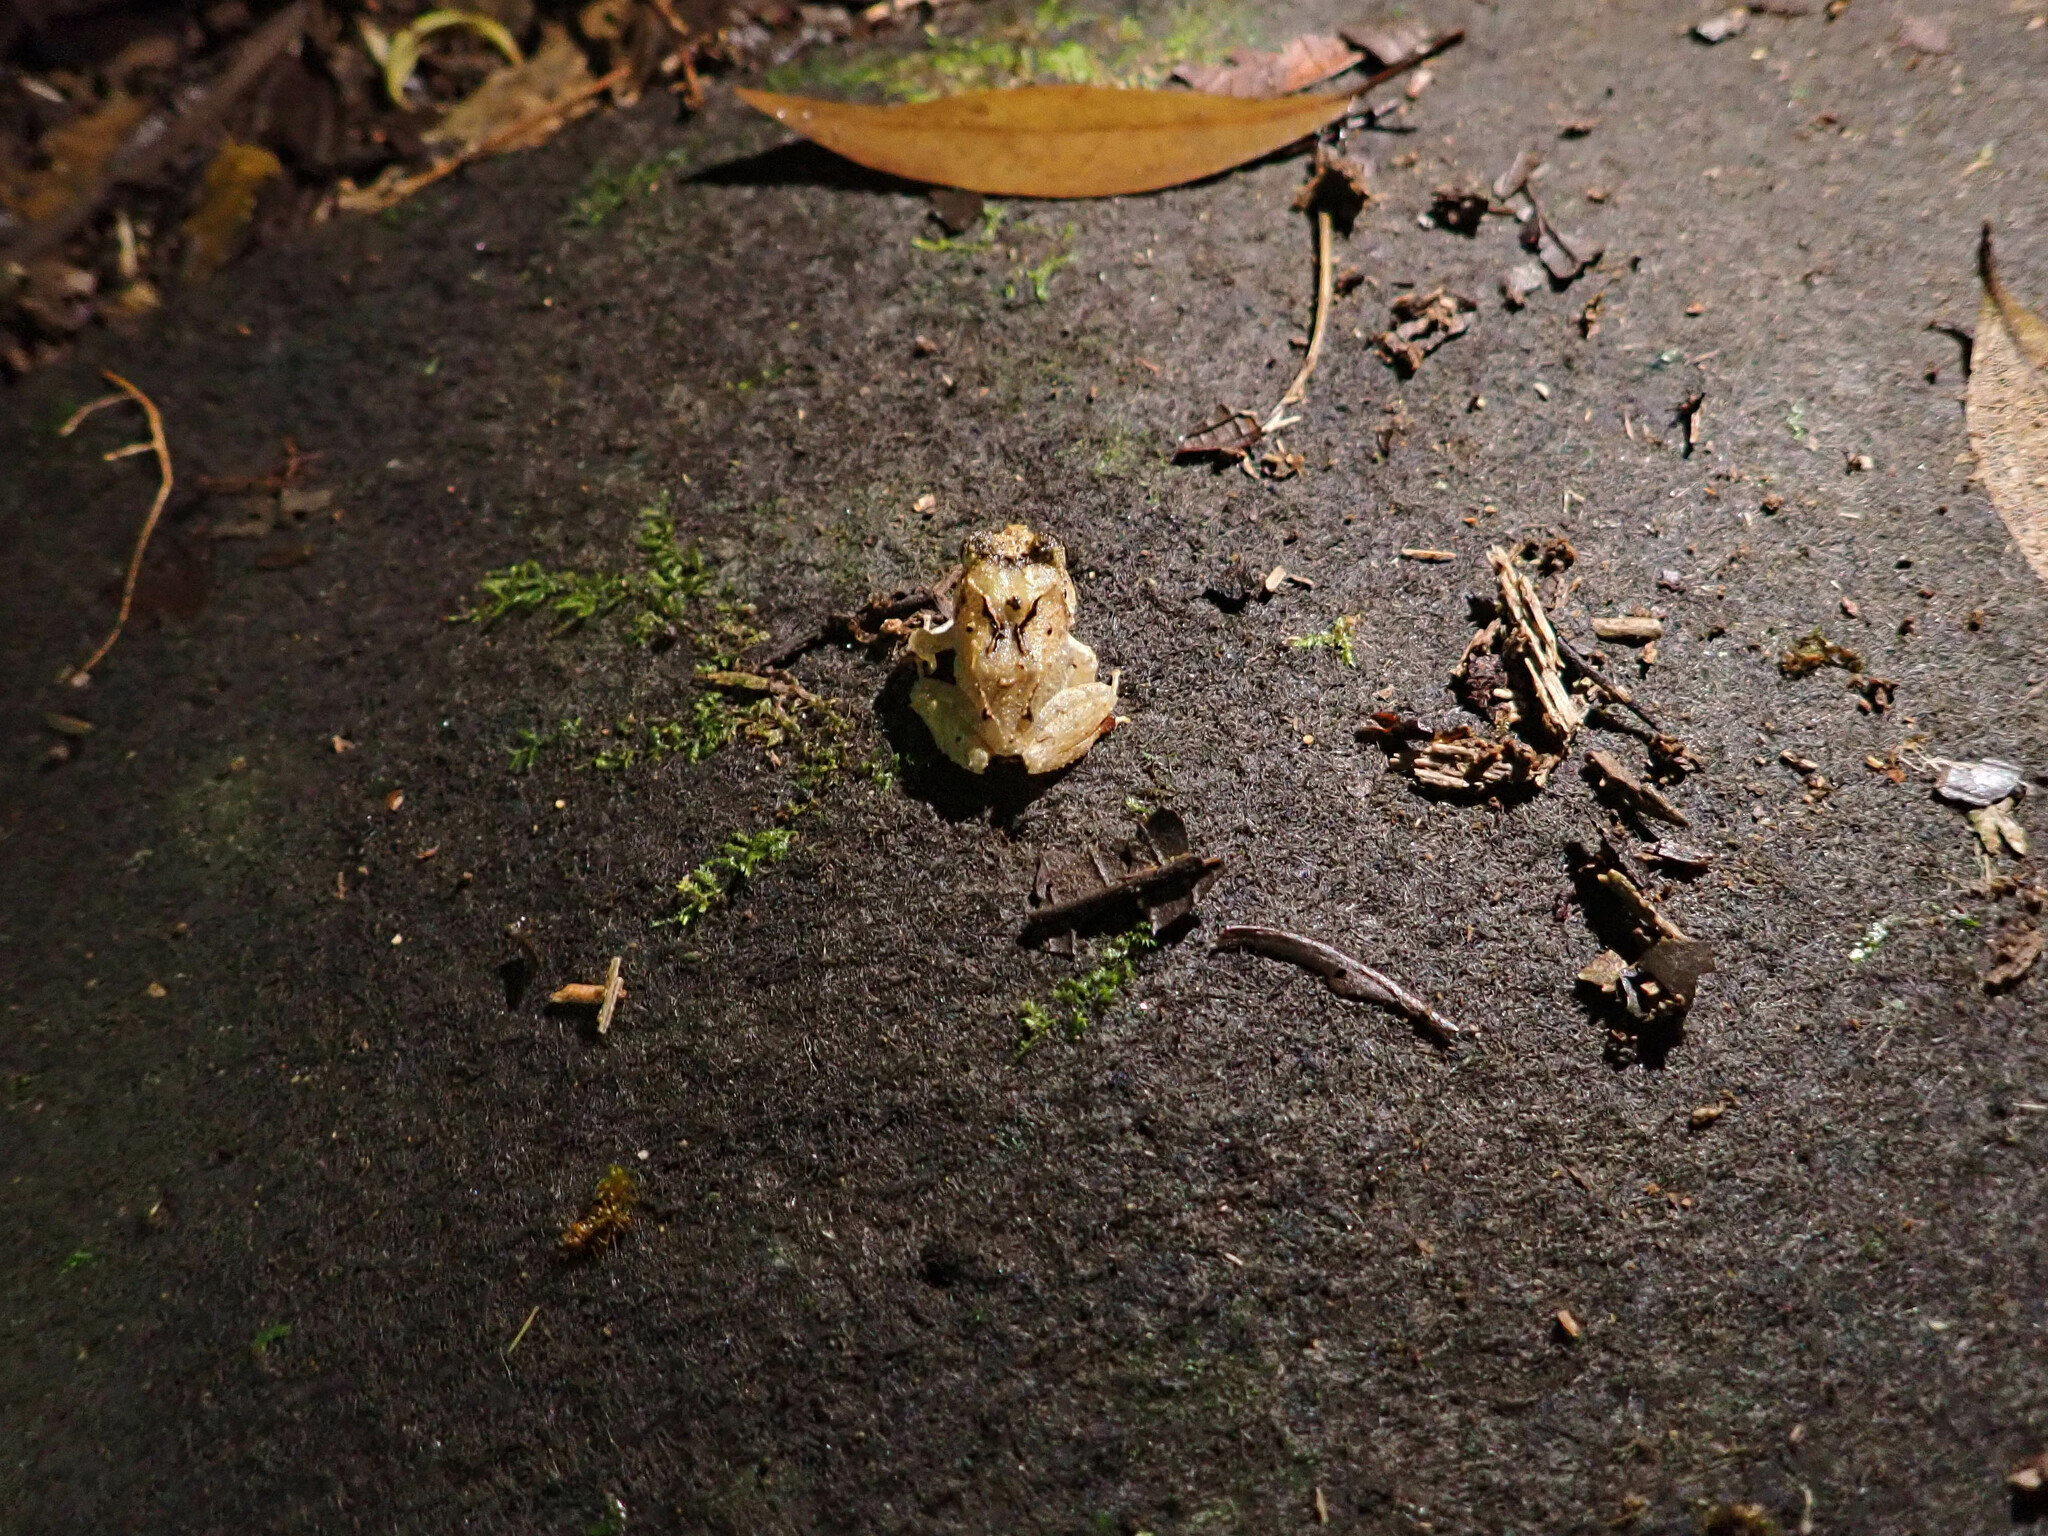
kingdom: Animalia
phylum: Chordata
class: Amphibia
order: Anura
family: Craugastoridae
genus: Craugastor
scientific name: Craugastor megacephalus
